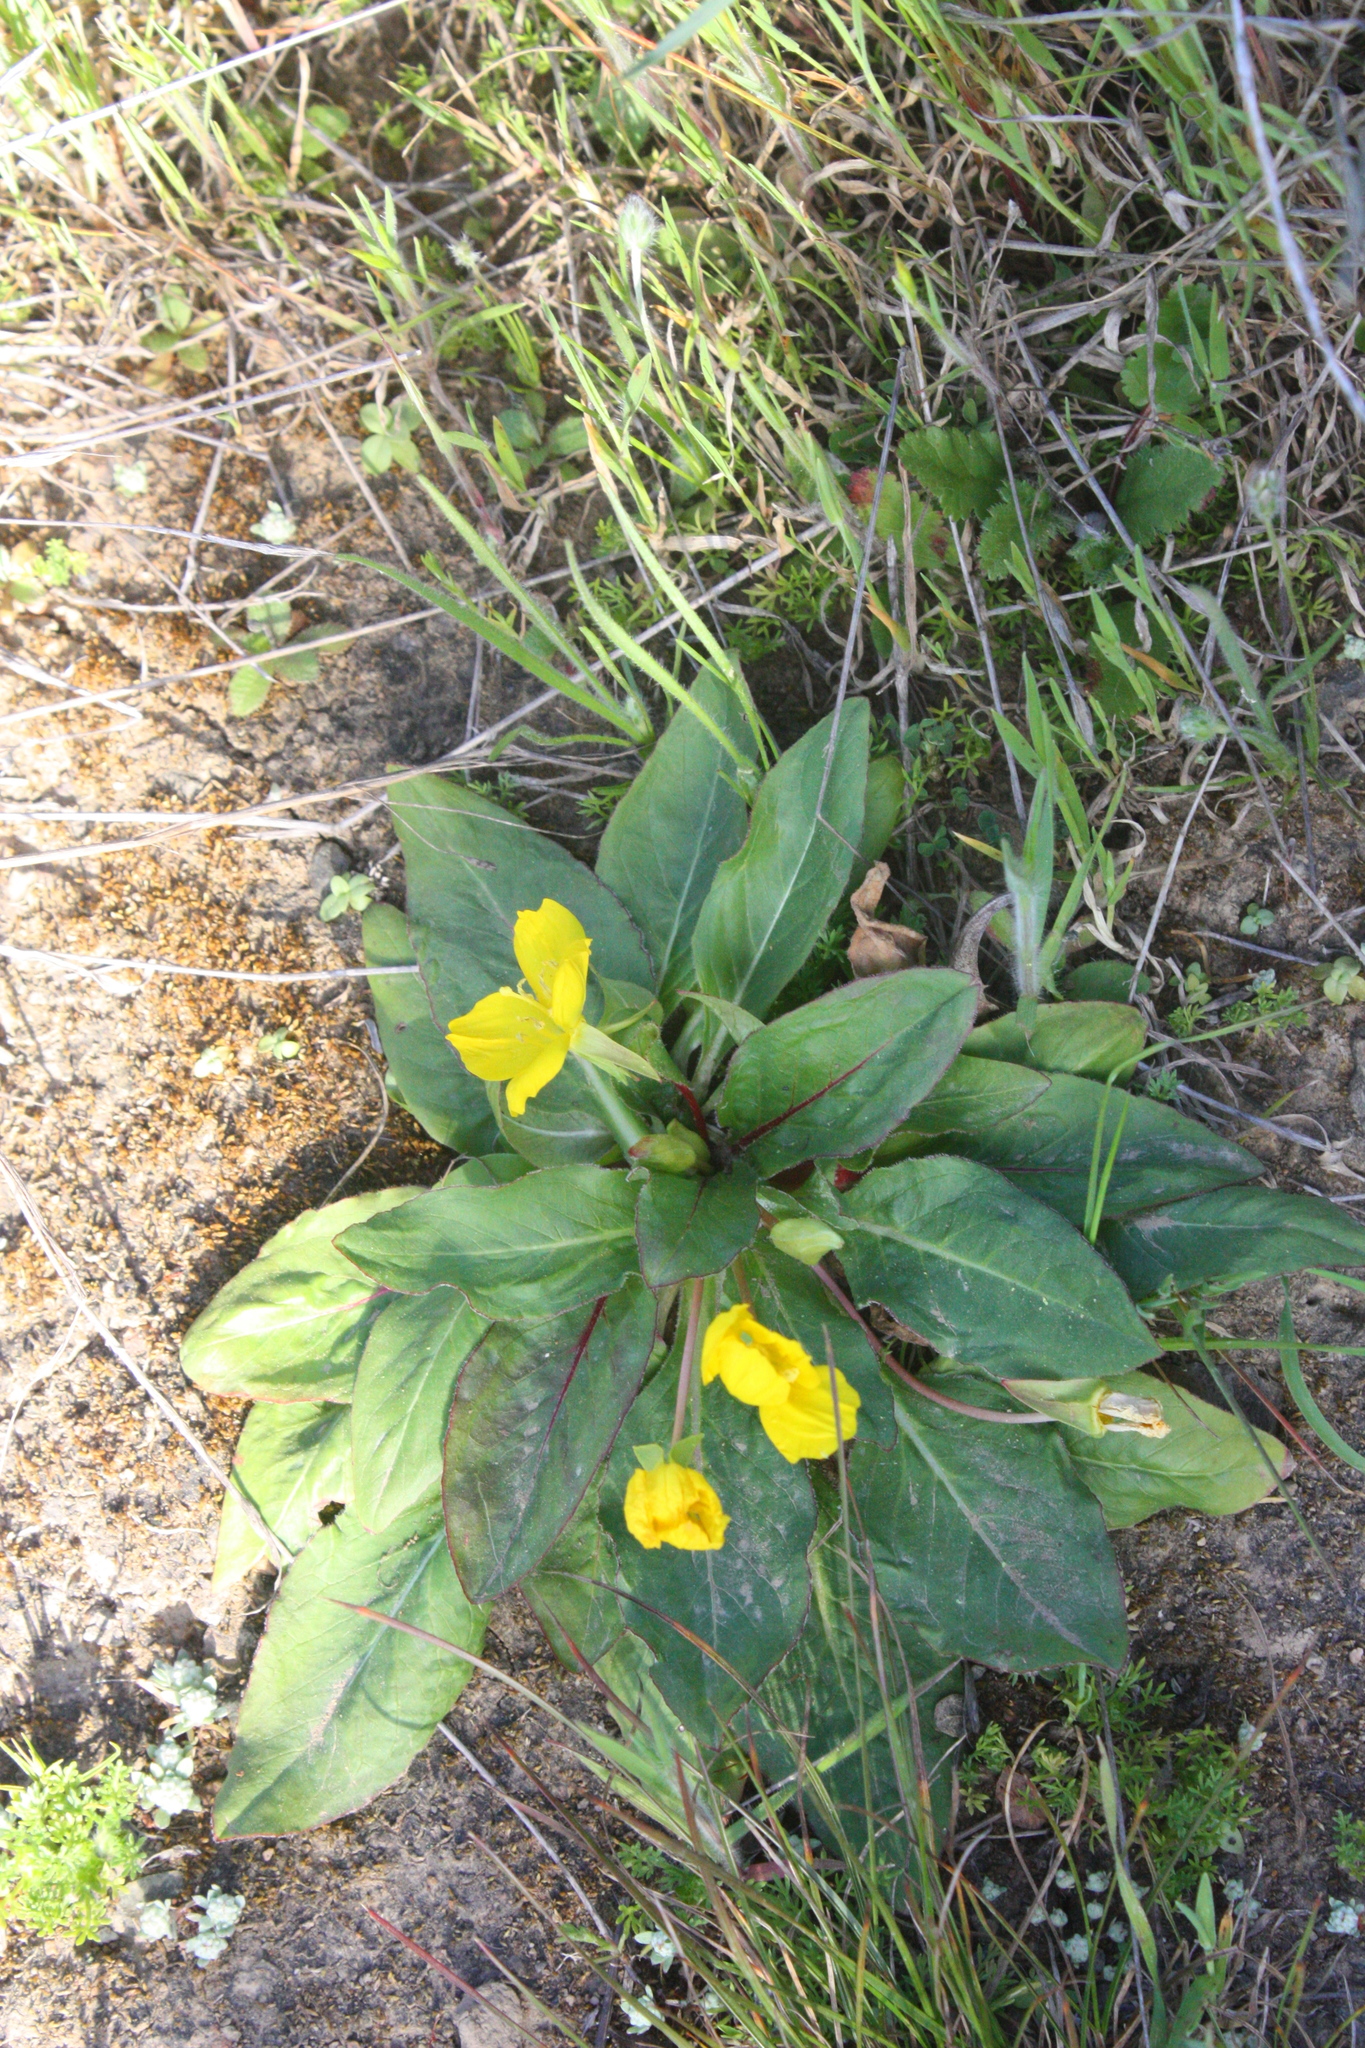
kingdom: Plantae
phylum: Tracheophyta
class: Magnoliopsida
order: Myrtales
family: Onagraceae
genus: Taraxia
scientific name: Taraxia ovata
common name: Goldeneggs
